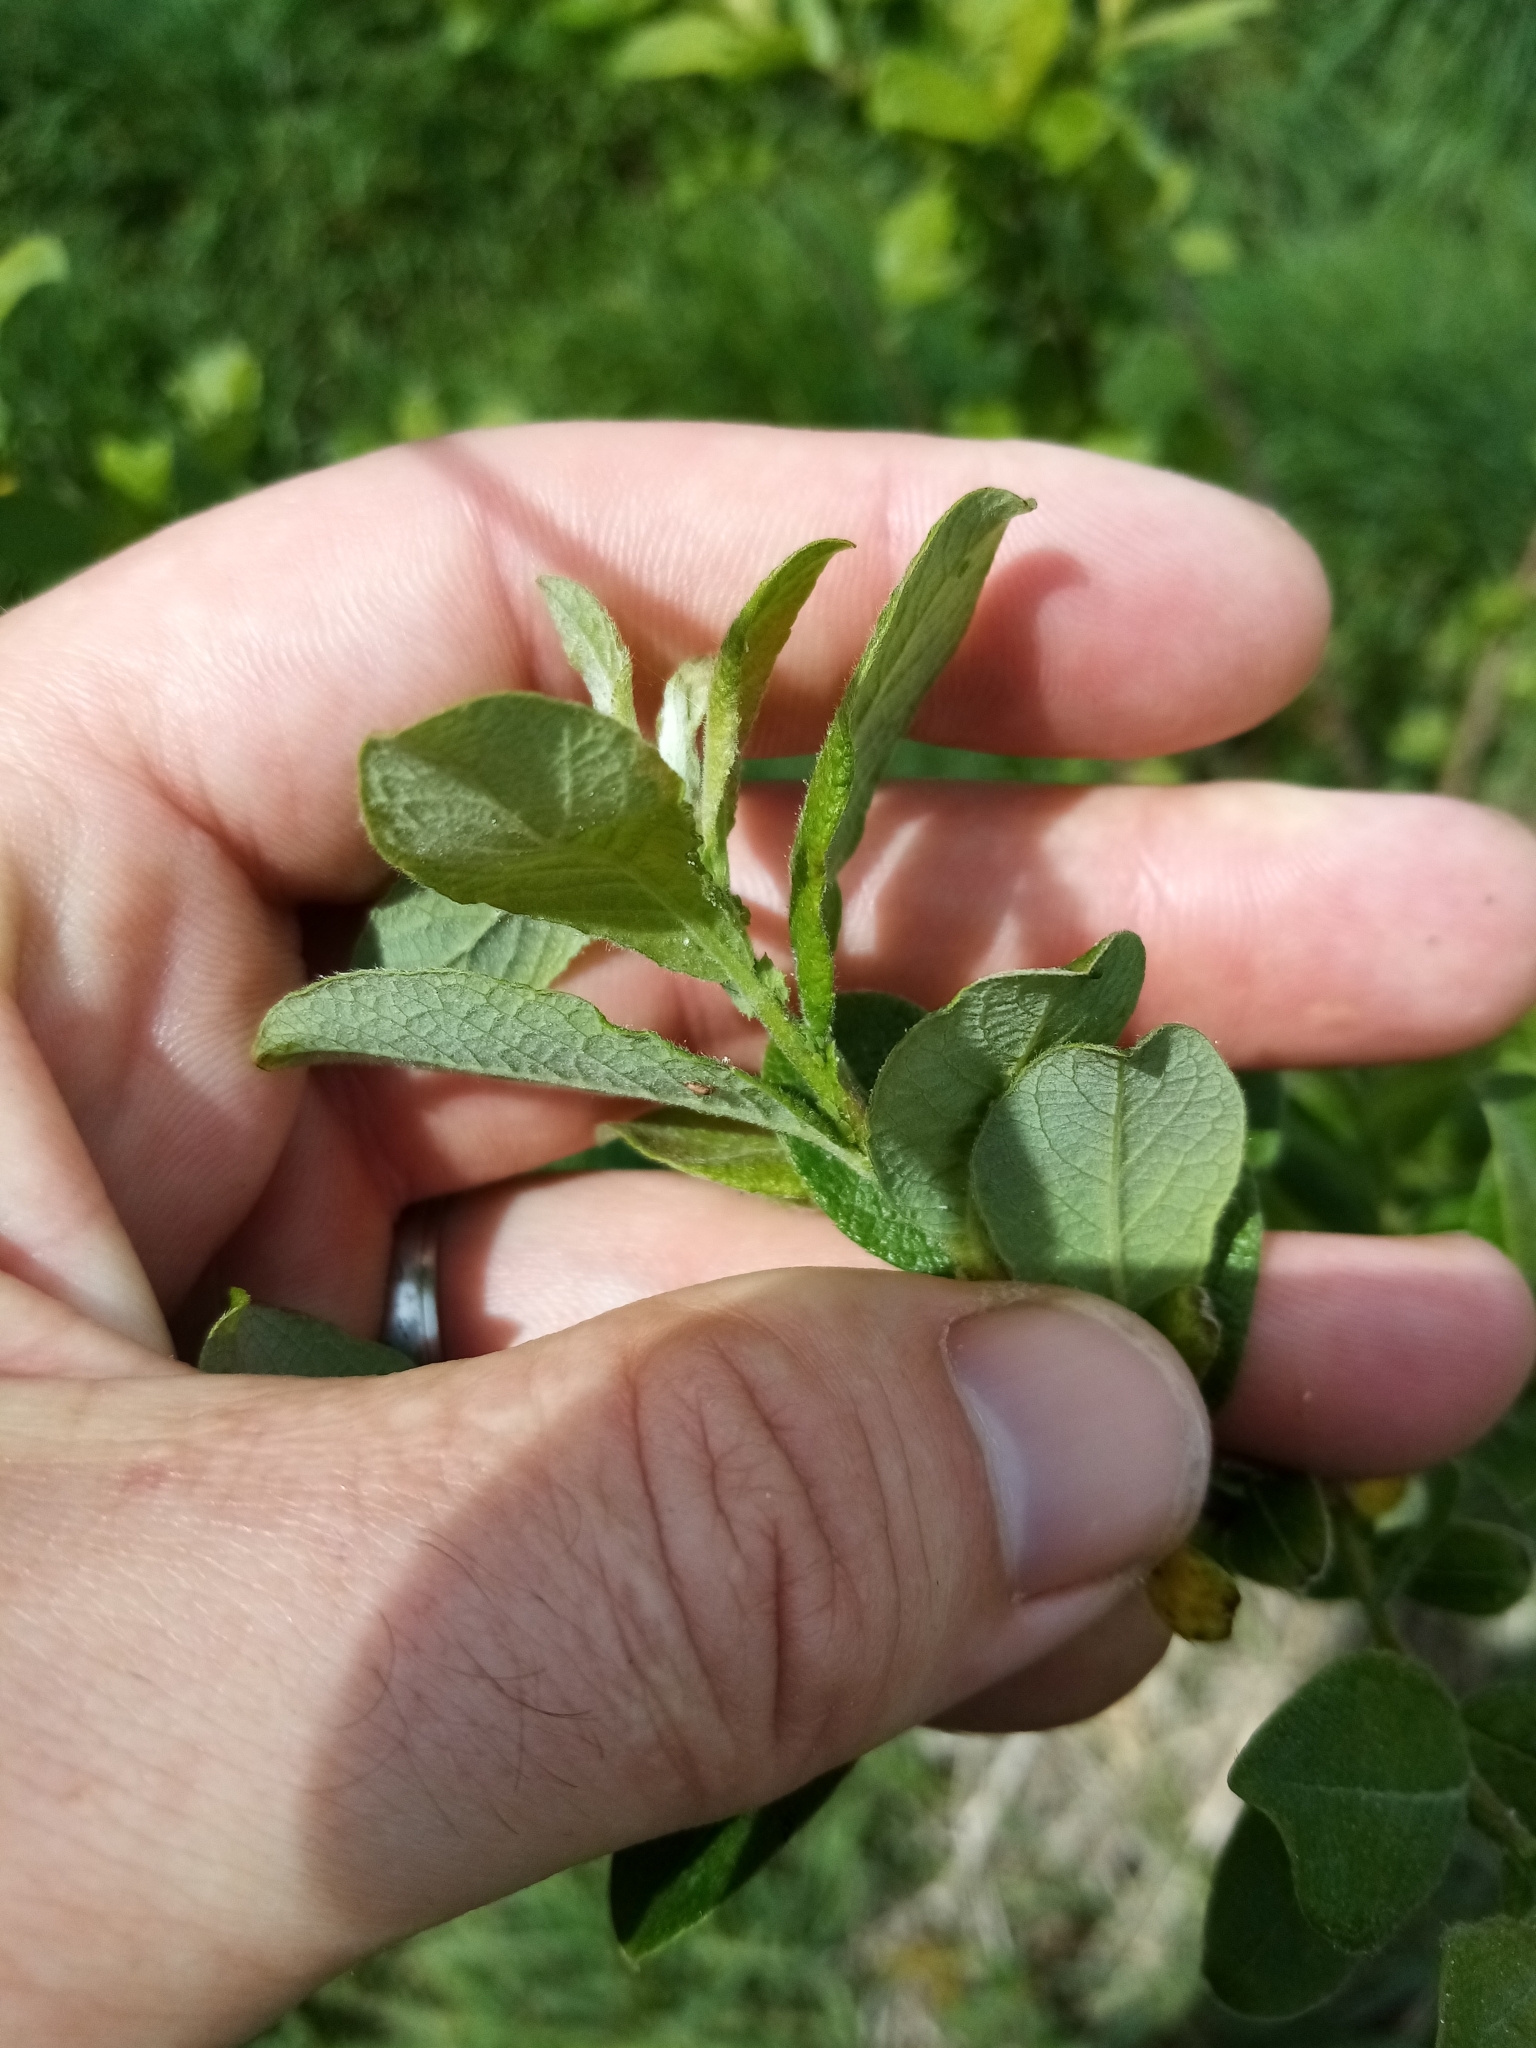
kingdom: Plantae
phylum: Tracheophyta
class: Magnoliopsida
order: Malpighiales
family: Salicaceae
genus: Salix
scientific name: Salix cinerea
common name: Common sallow
